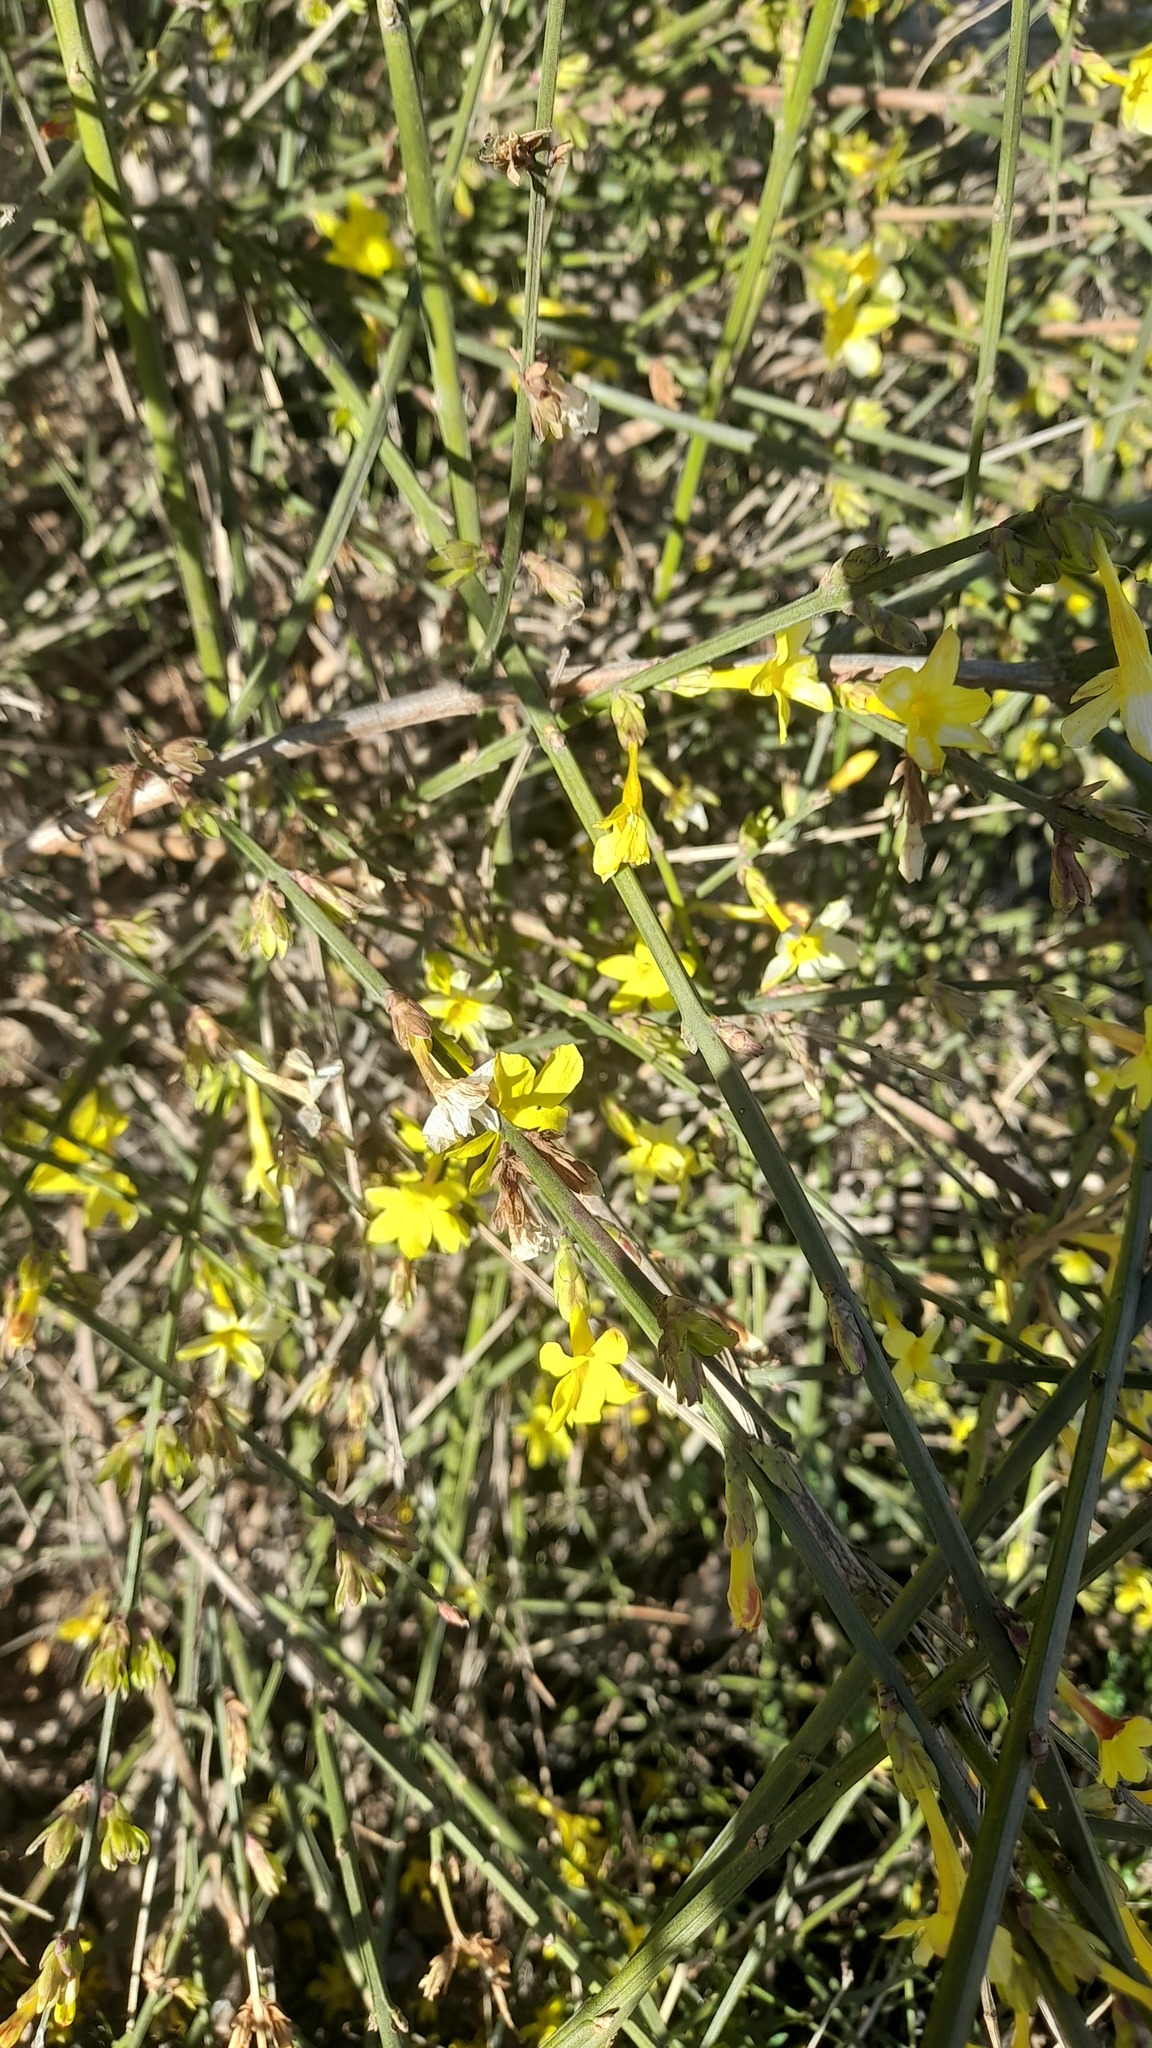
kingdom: Plantae
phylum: Tracheophyta
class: Magnoliopsida
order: Lamiales
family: Oleaceae
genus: Jasminum
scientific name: Jasminum nudiflorum
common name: Winter jasmine
